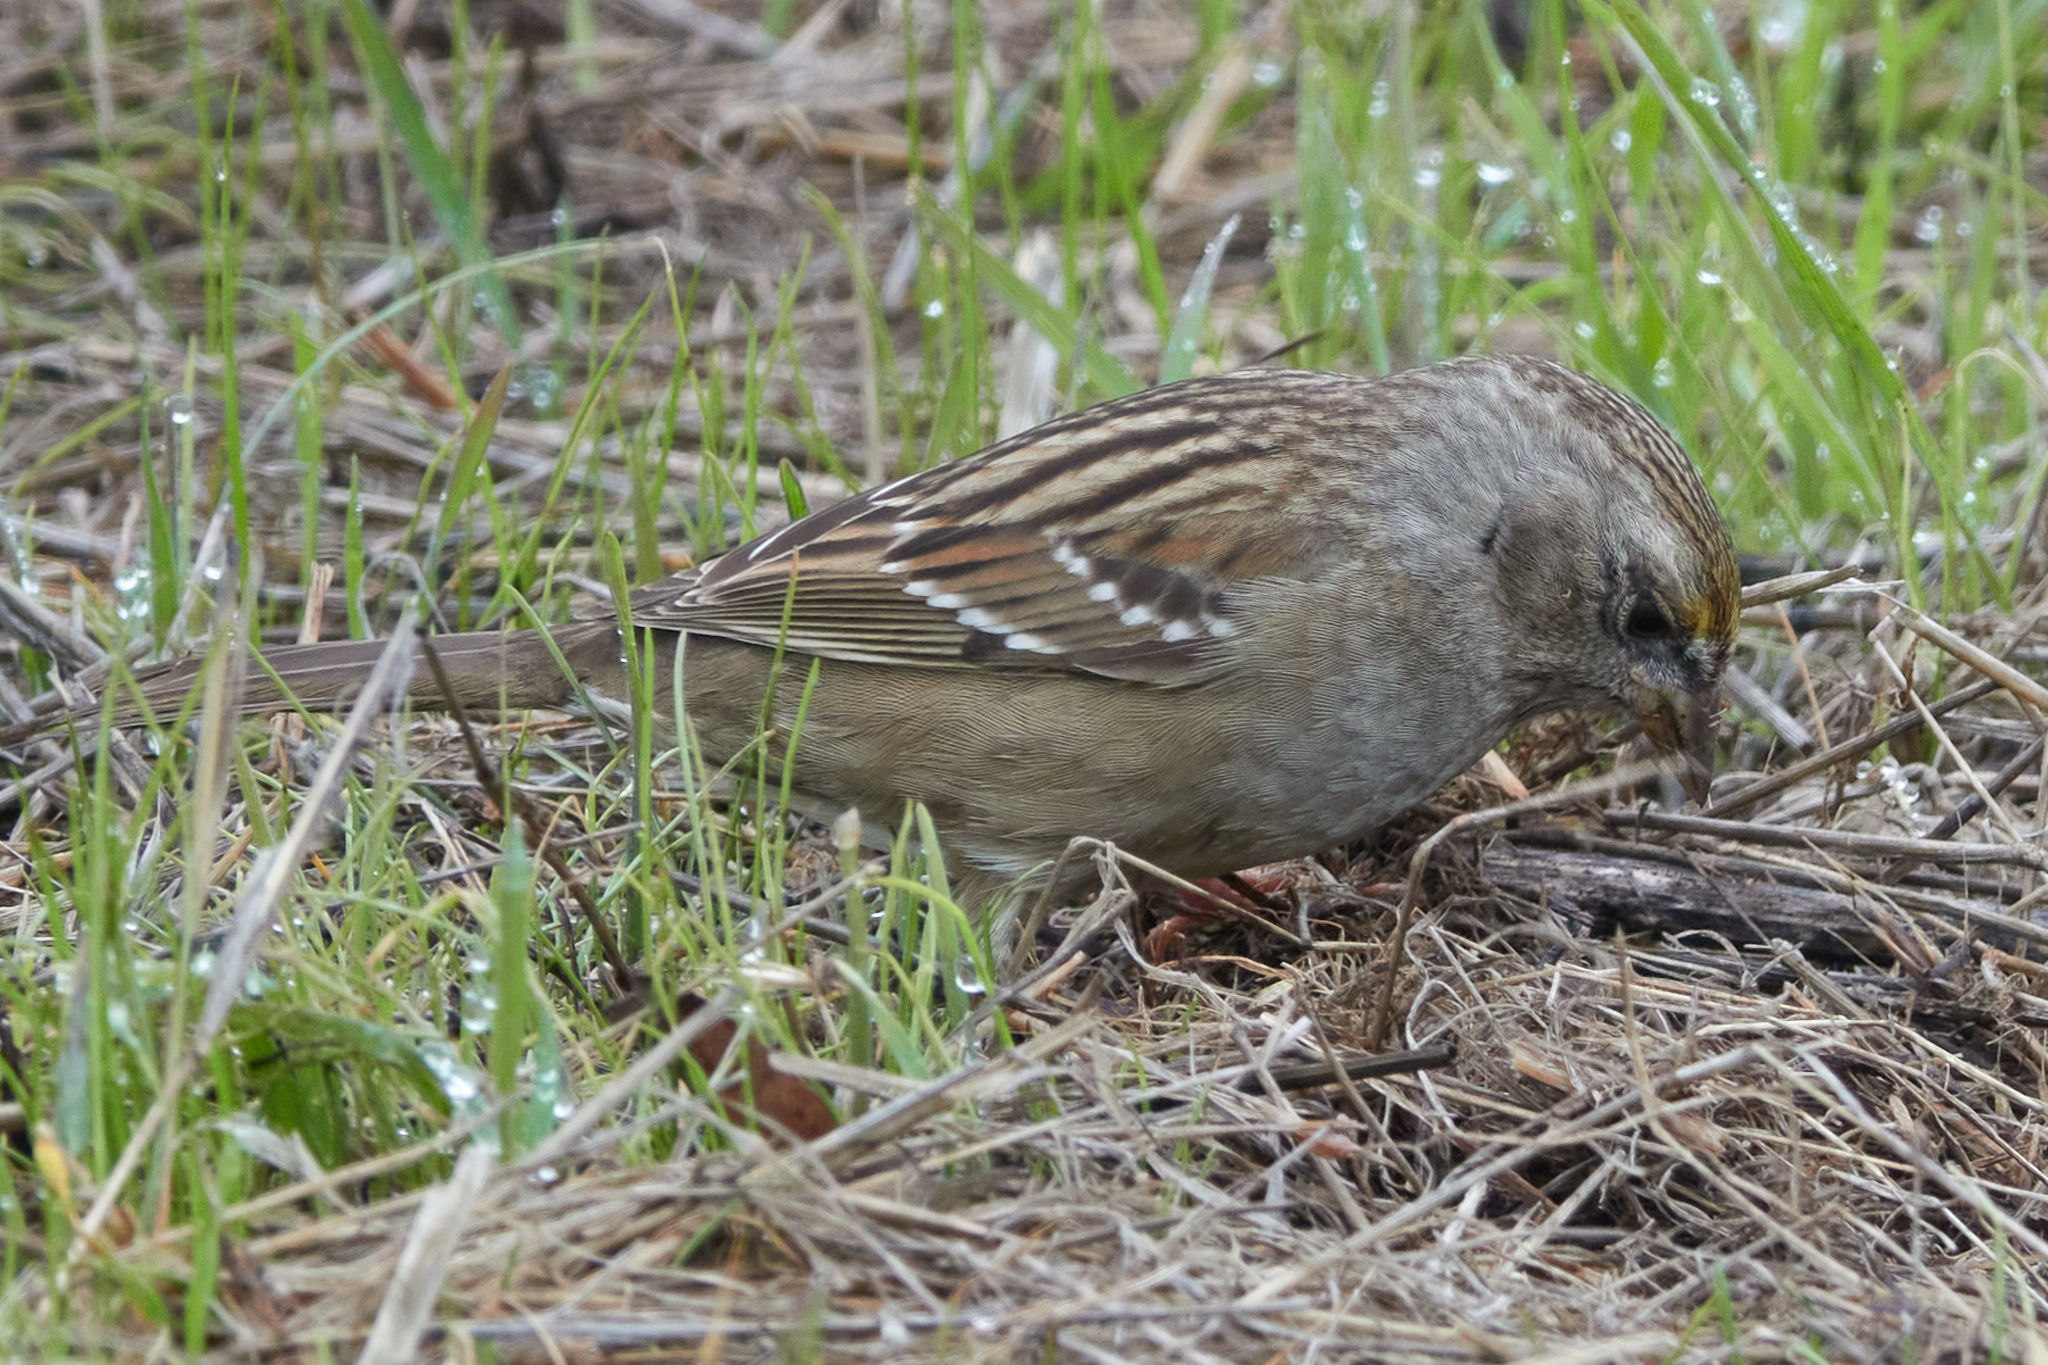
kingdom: Animalia
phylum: Chordata
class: Aves
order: Passeriformes
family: Passerellidae
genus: Zonotrichia
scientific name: Zonotrichia atricapilla
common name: Golden-crowned sparrow
